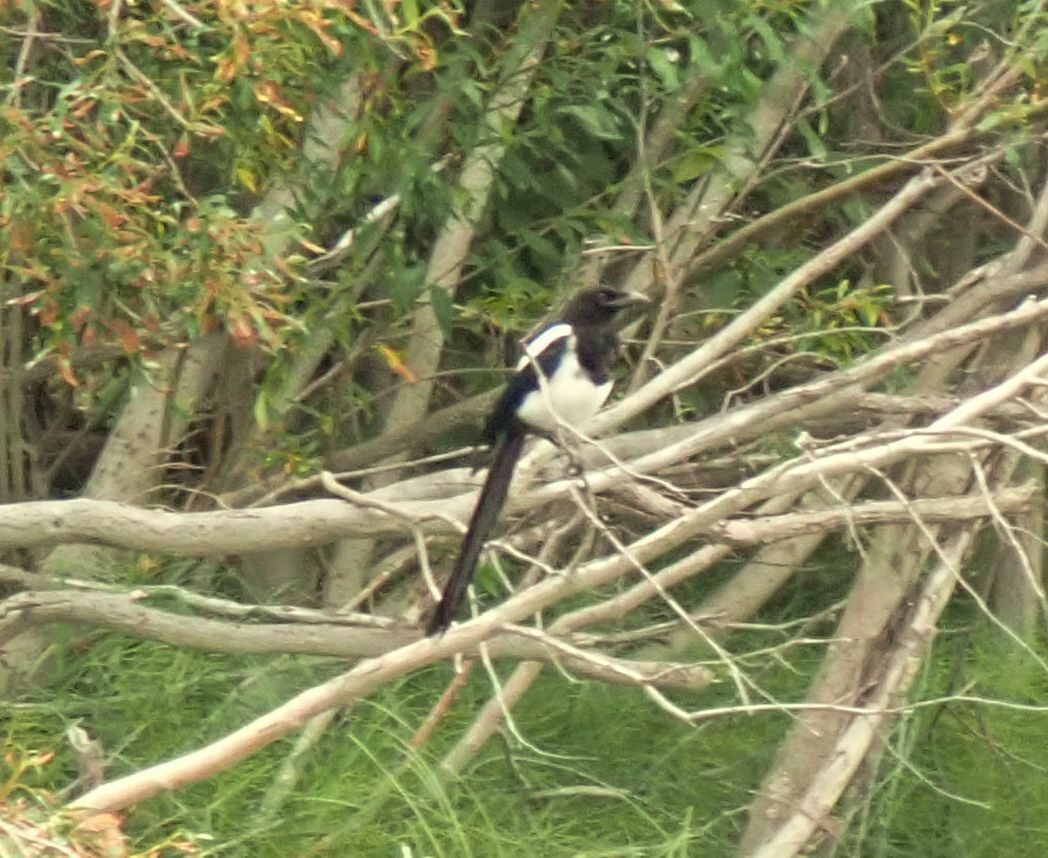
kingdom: Animalia
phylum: Chordata
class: Aves
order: Passeriformes
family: Corvidae
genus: Pica
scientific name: Pica hudsonia
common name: Black-billed magpie
